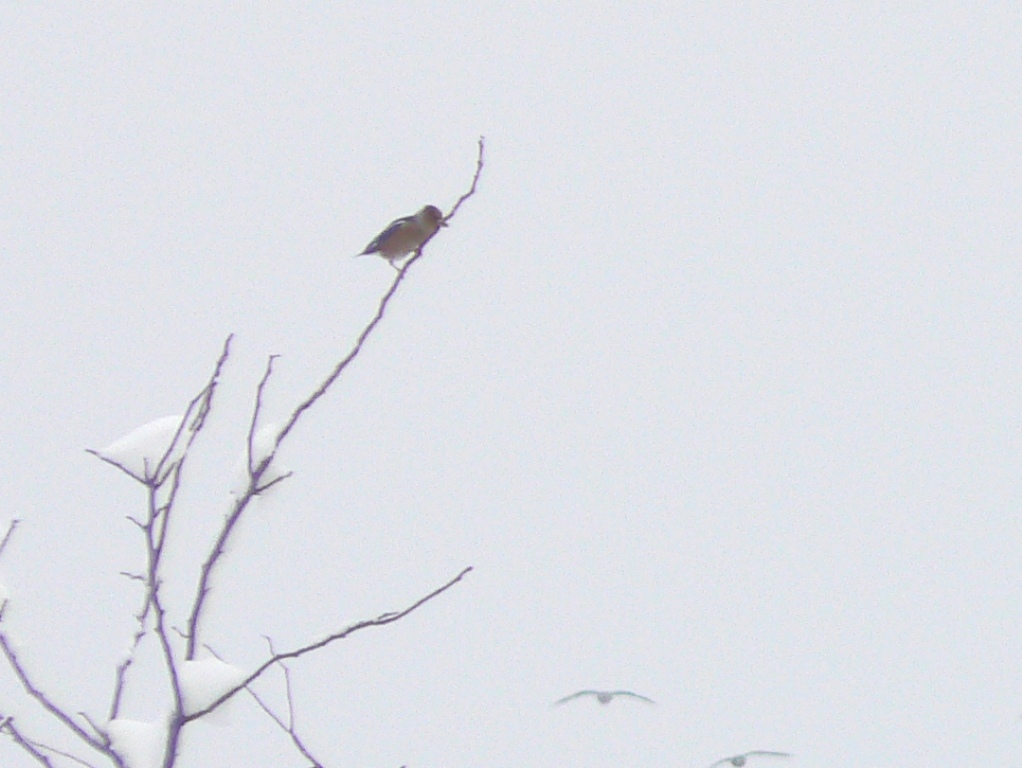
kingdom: Animalia
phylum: Chordata
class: Aves
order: Passeriformes
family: Fringillidae
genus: Coccothraustes
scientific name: Coccothraustes coccothraustes
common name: Hawfinch
